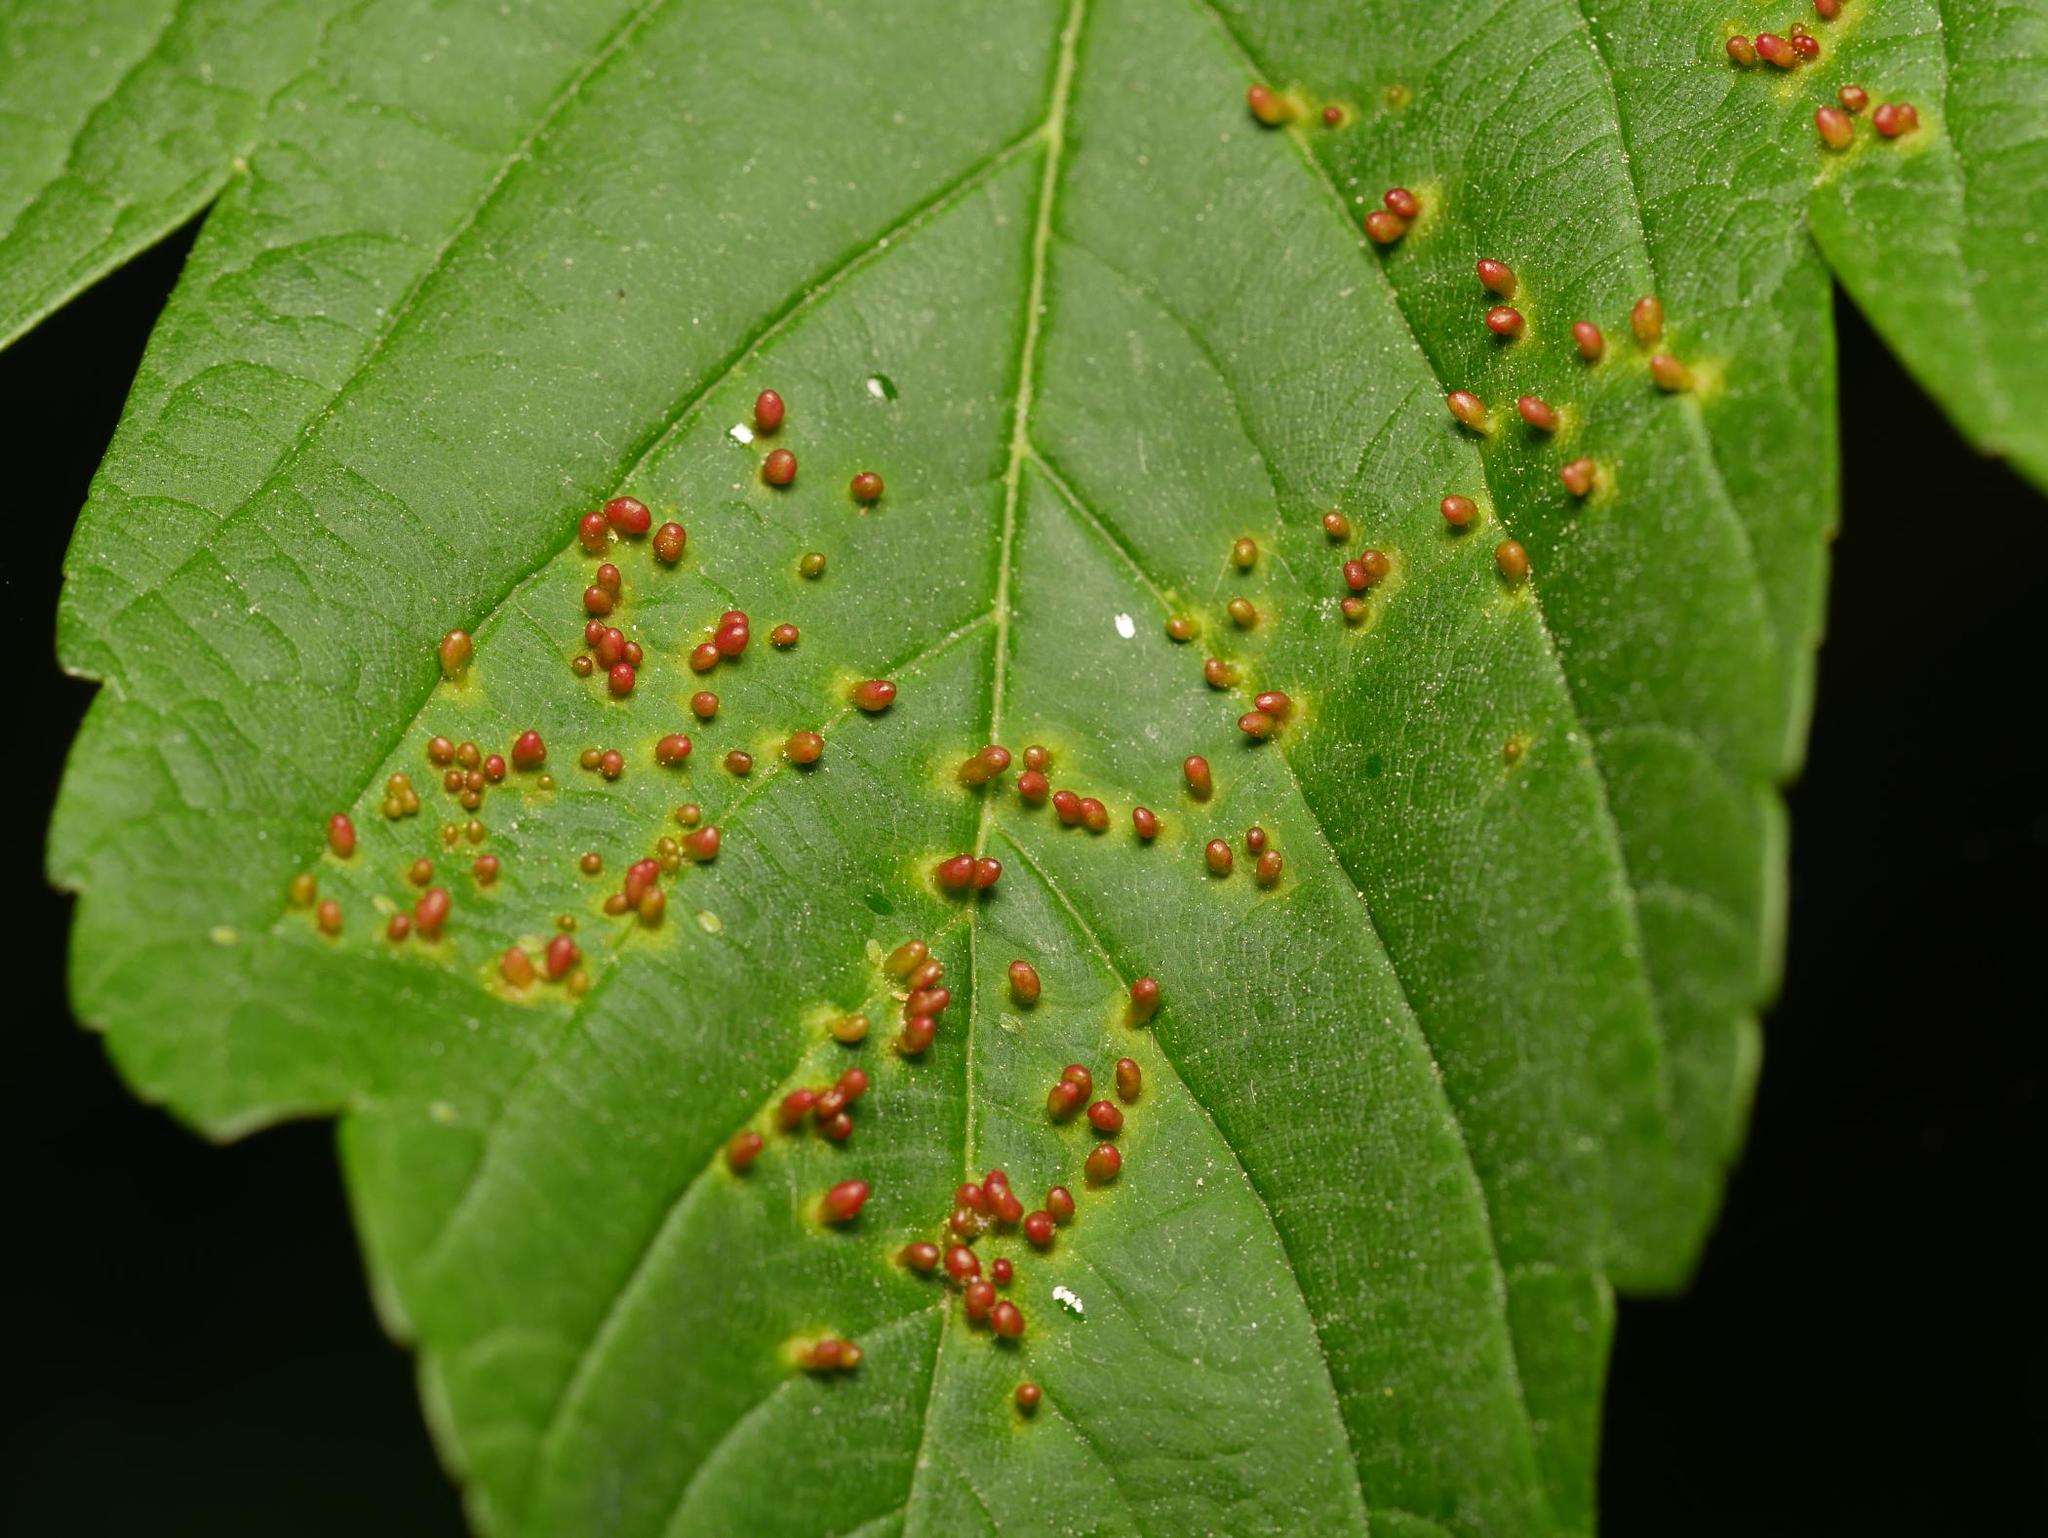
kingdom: Animalia
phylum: Arthropoda
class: Arachnida
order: Trombidiformes
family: Eriophyidae
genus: Aceria
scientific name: Aceria cephaloneus
